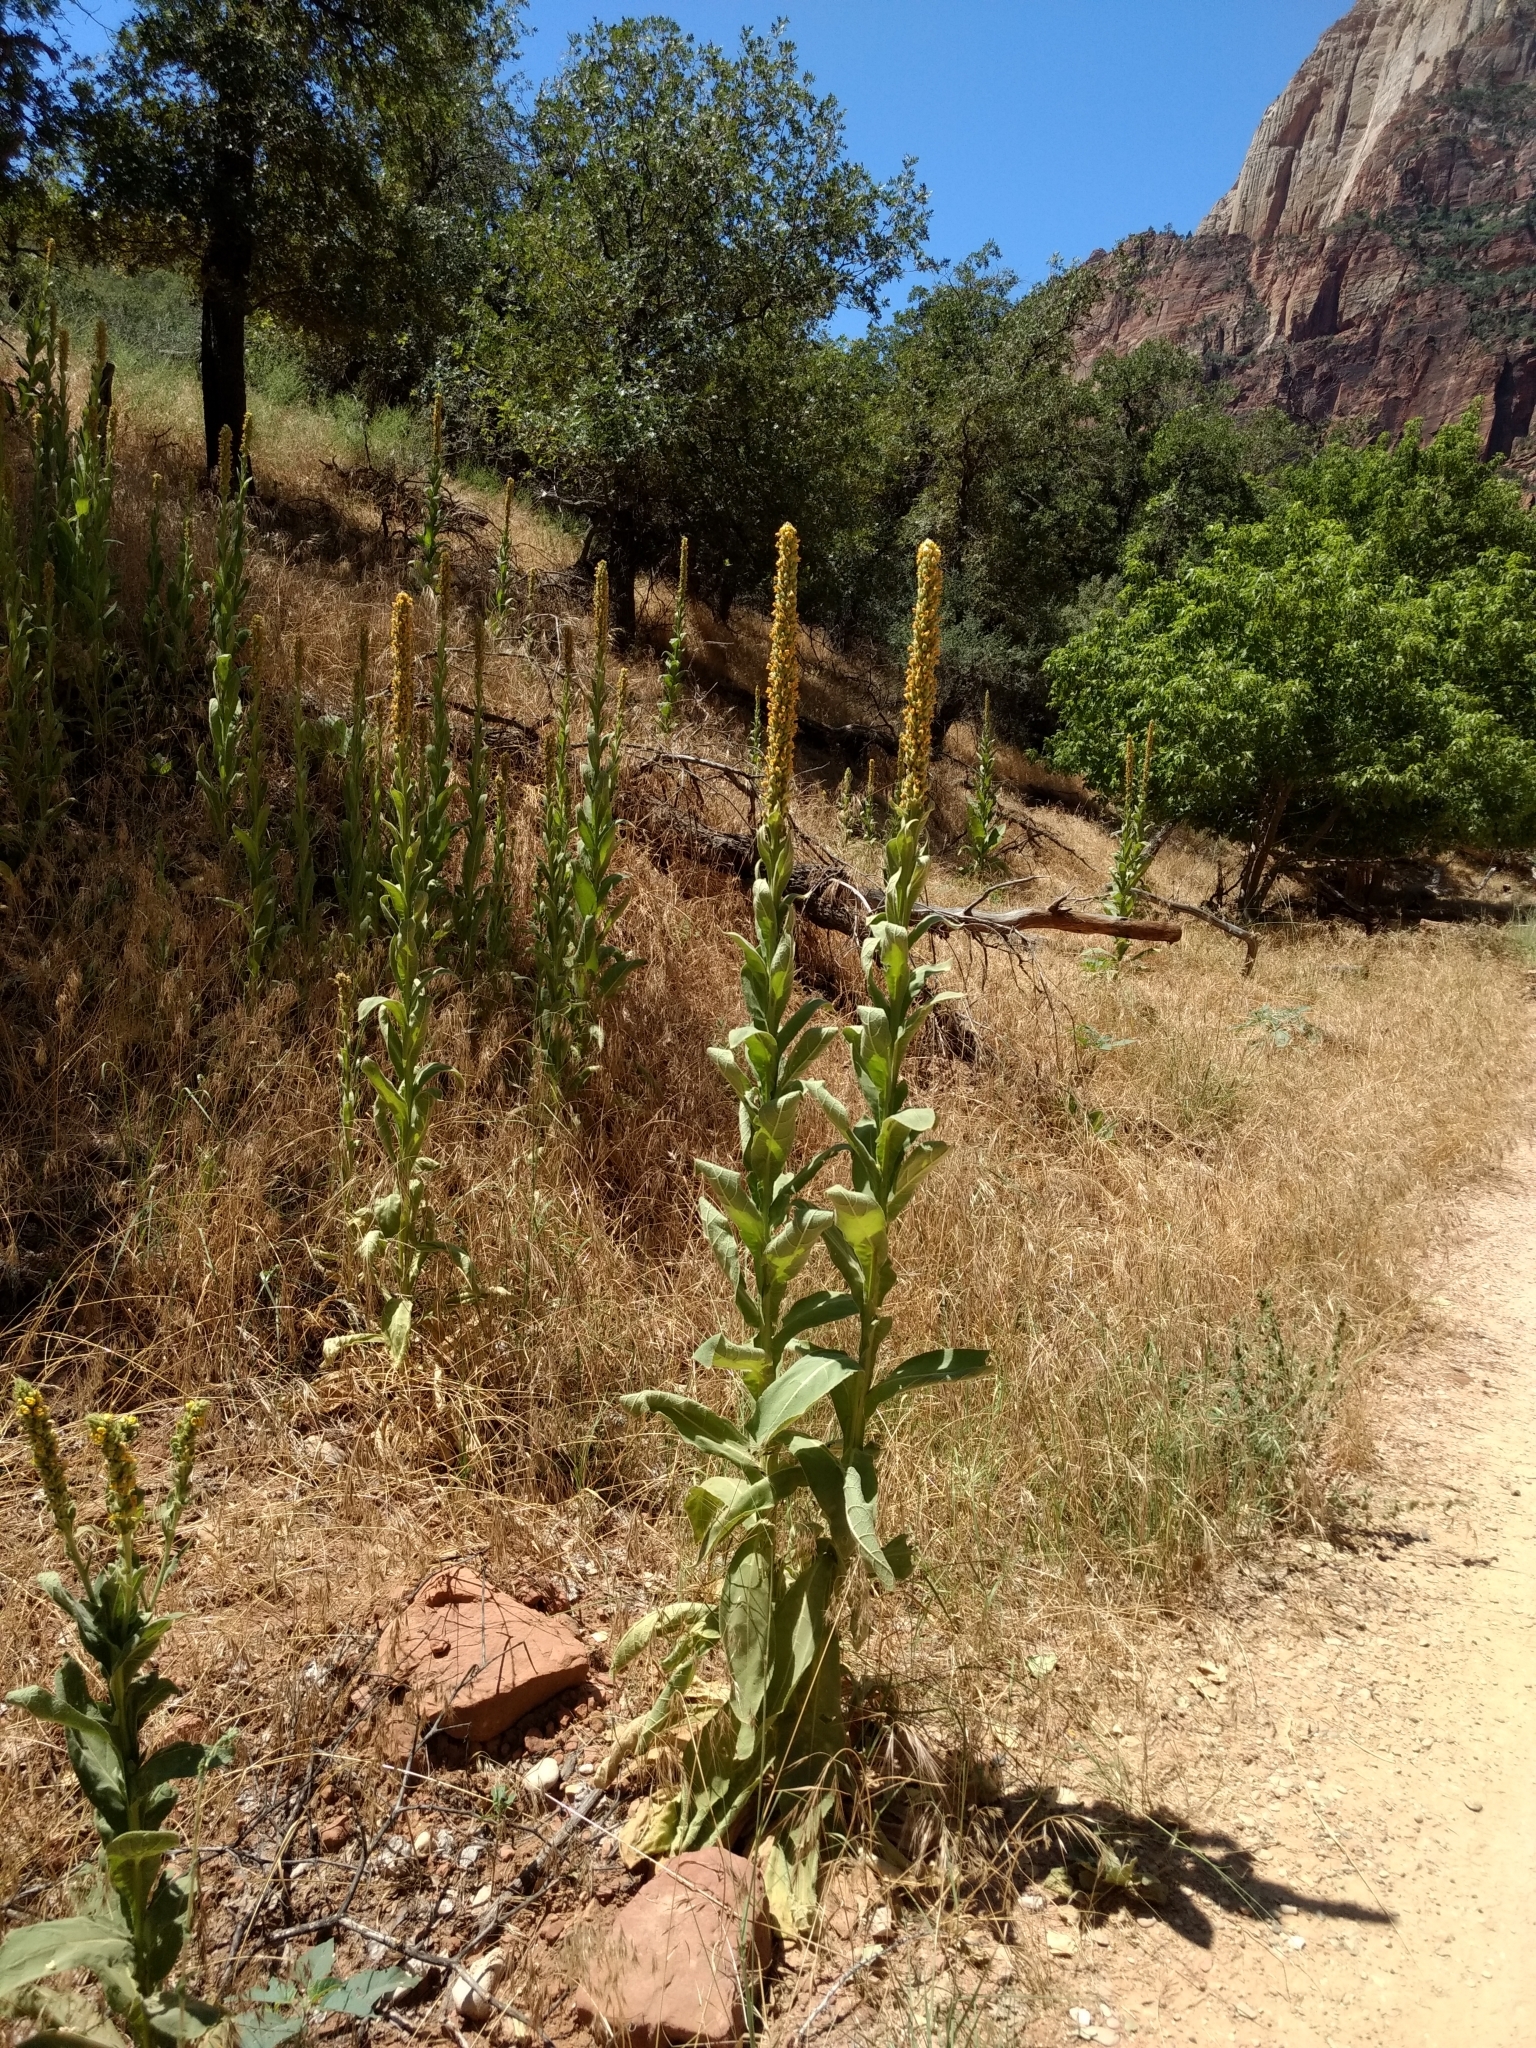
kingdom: Plantae
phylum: Tracheophyta
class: Magnoliopsida
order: Lamiales
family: Scrophulariaceae
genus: Verbascum
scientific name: Verbascum thapsus
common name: Common mullein
